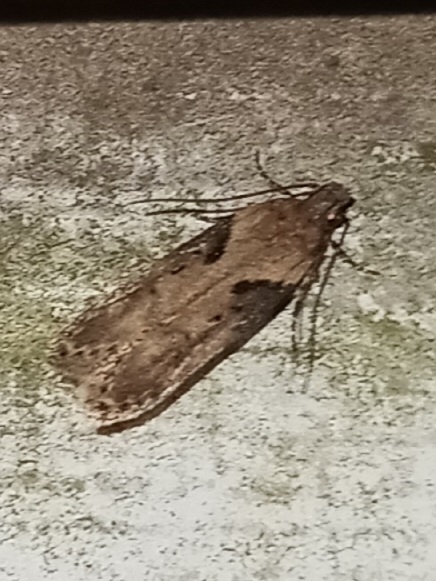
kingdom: Animalia
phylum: Arthropoda
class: Insecta
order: Lepidoptera
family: Gelechiidae
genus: Chionodes
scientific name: Chionodes mediofuscella
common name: Black-smudged chionodes moth
